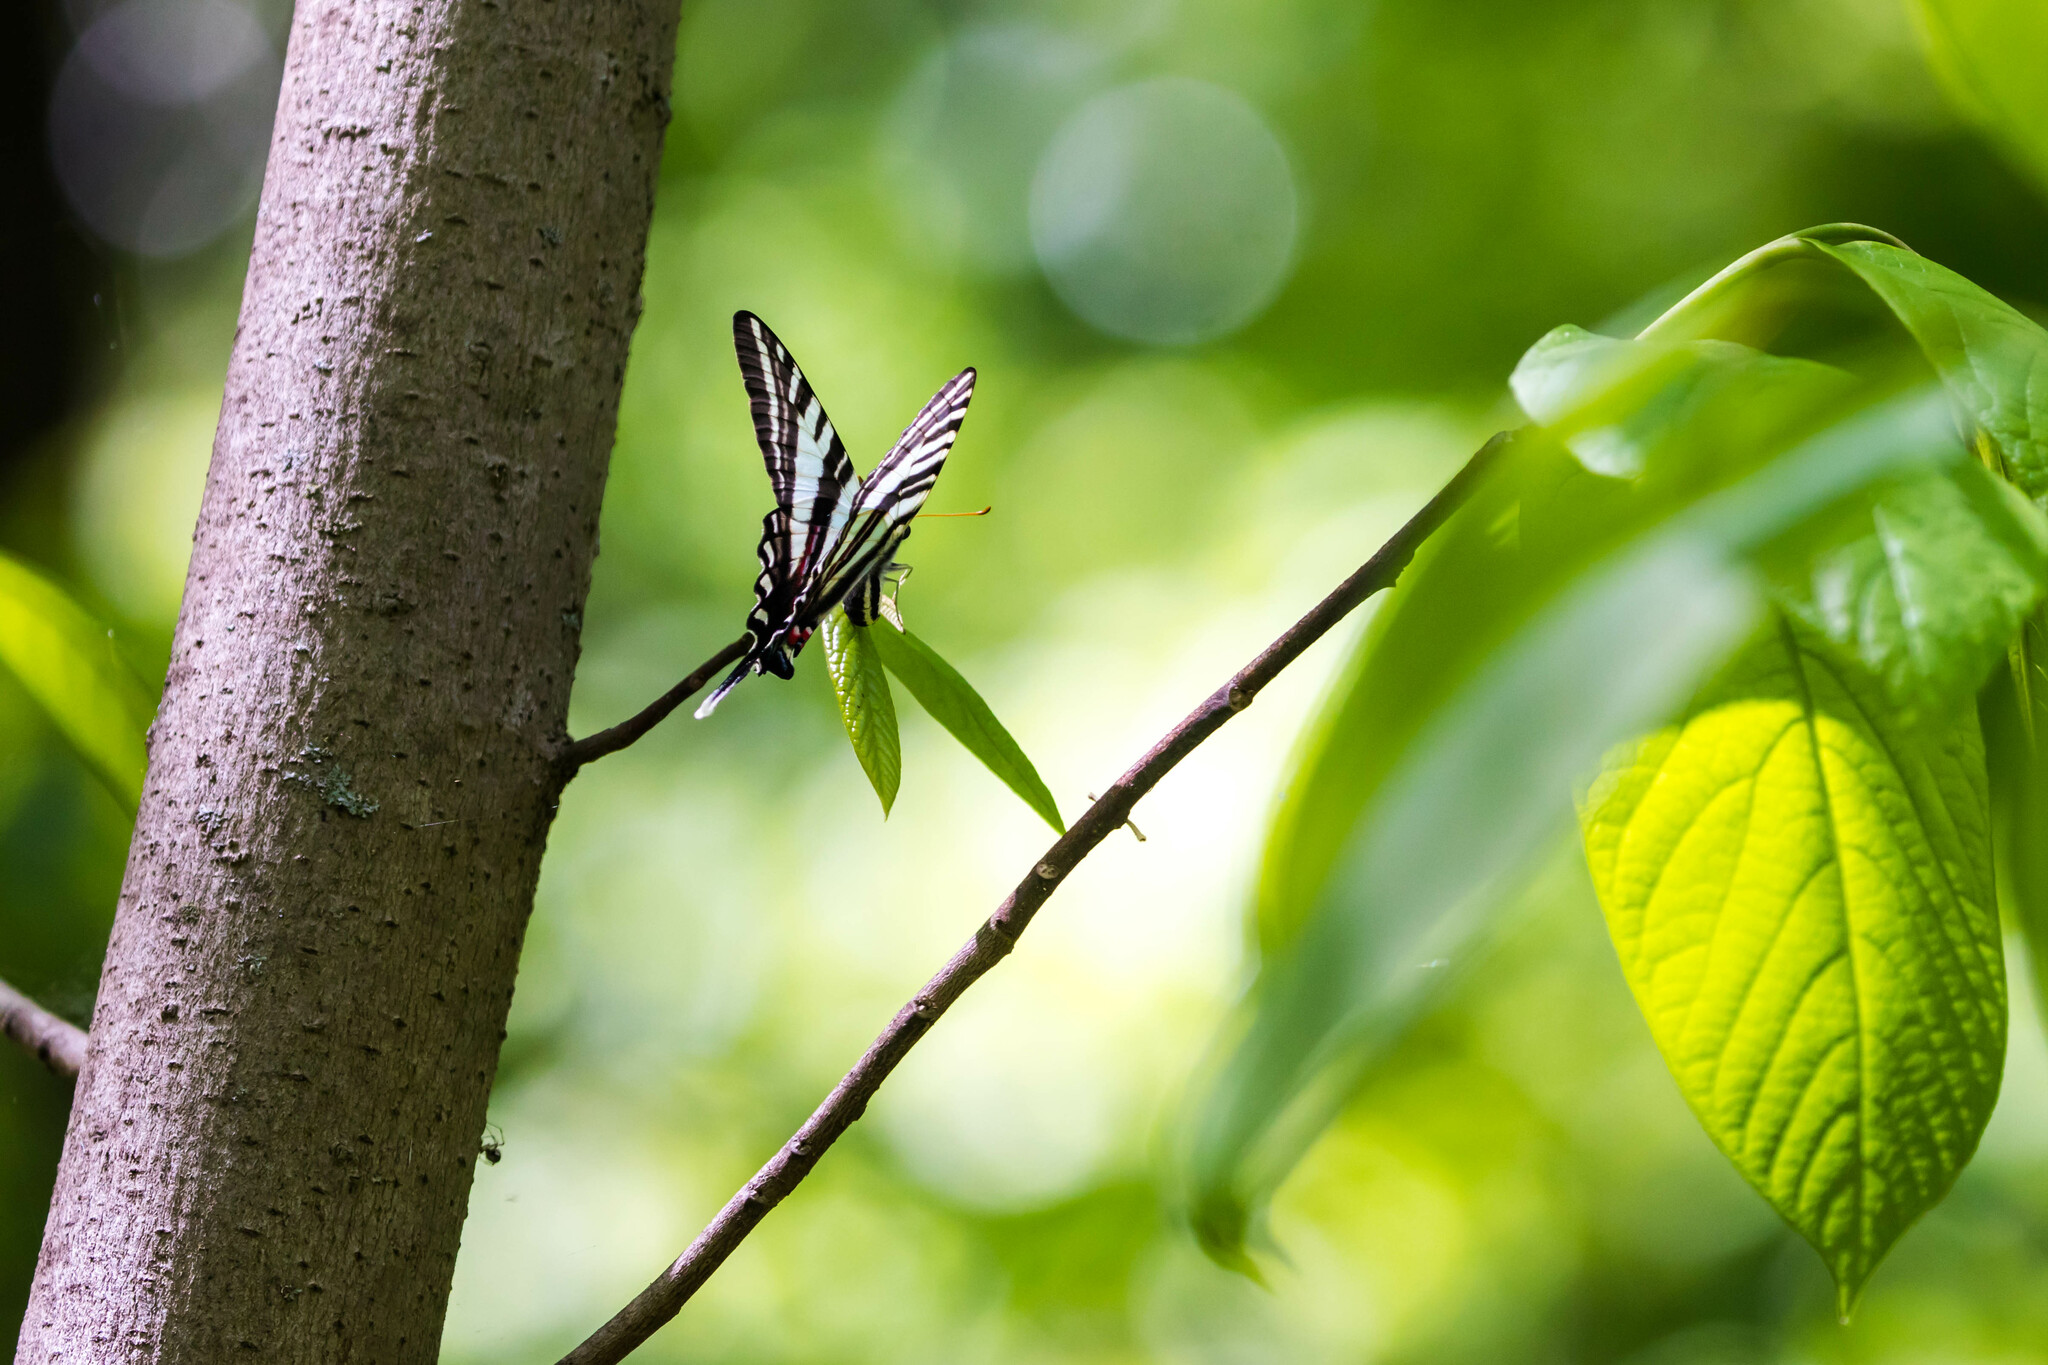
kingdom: Animalia
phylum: Arthropoda
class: Insecta
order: Lepidoptera
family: Papilionidae
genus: Protographium
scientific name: Protographium marcellus
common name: Zebra swallowtail
